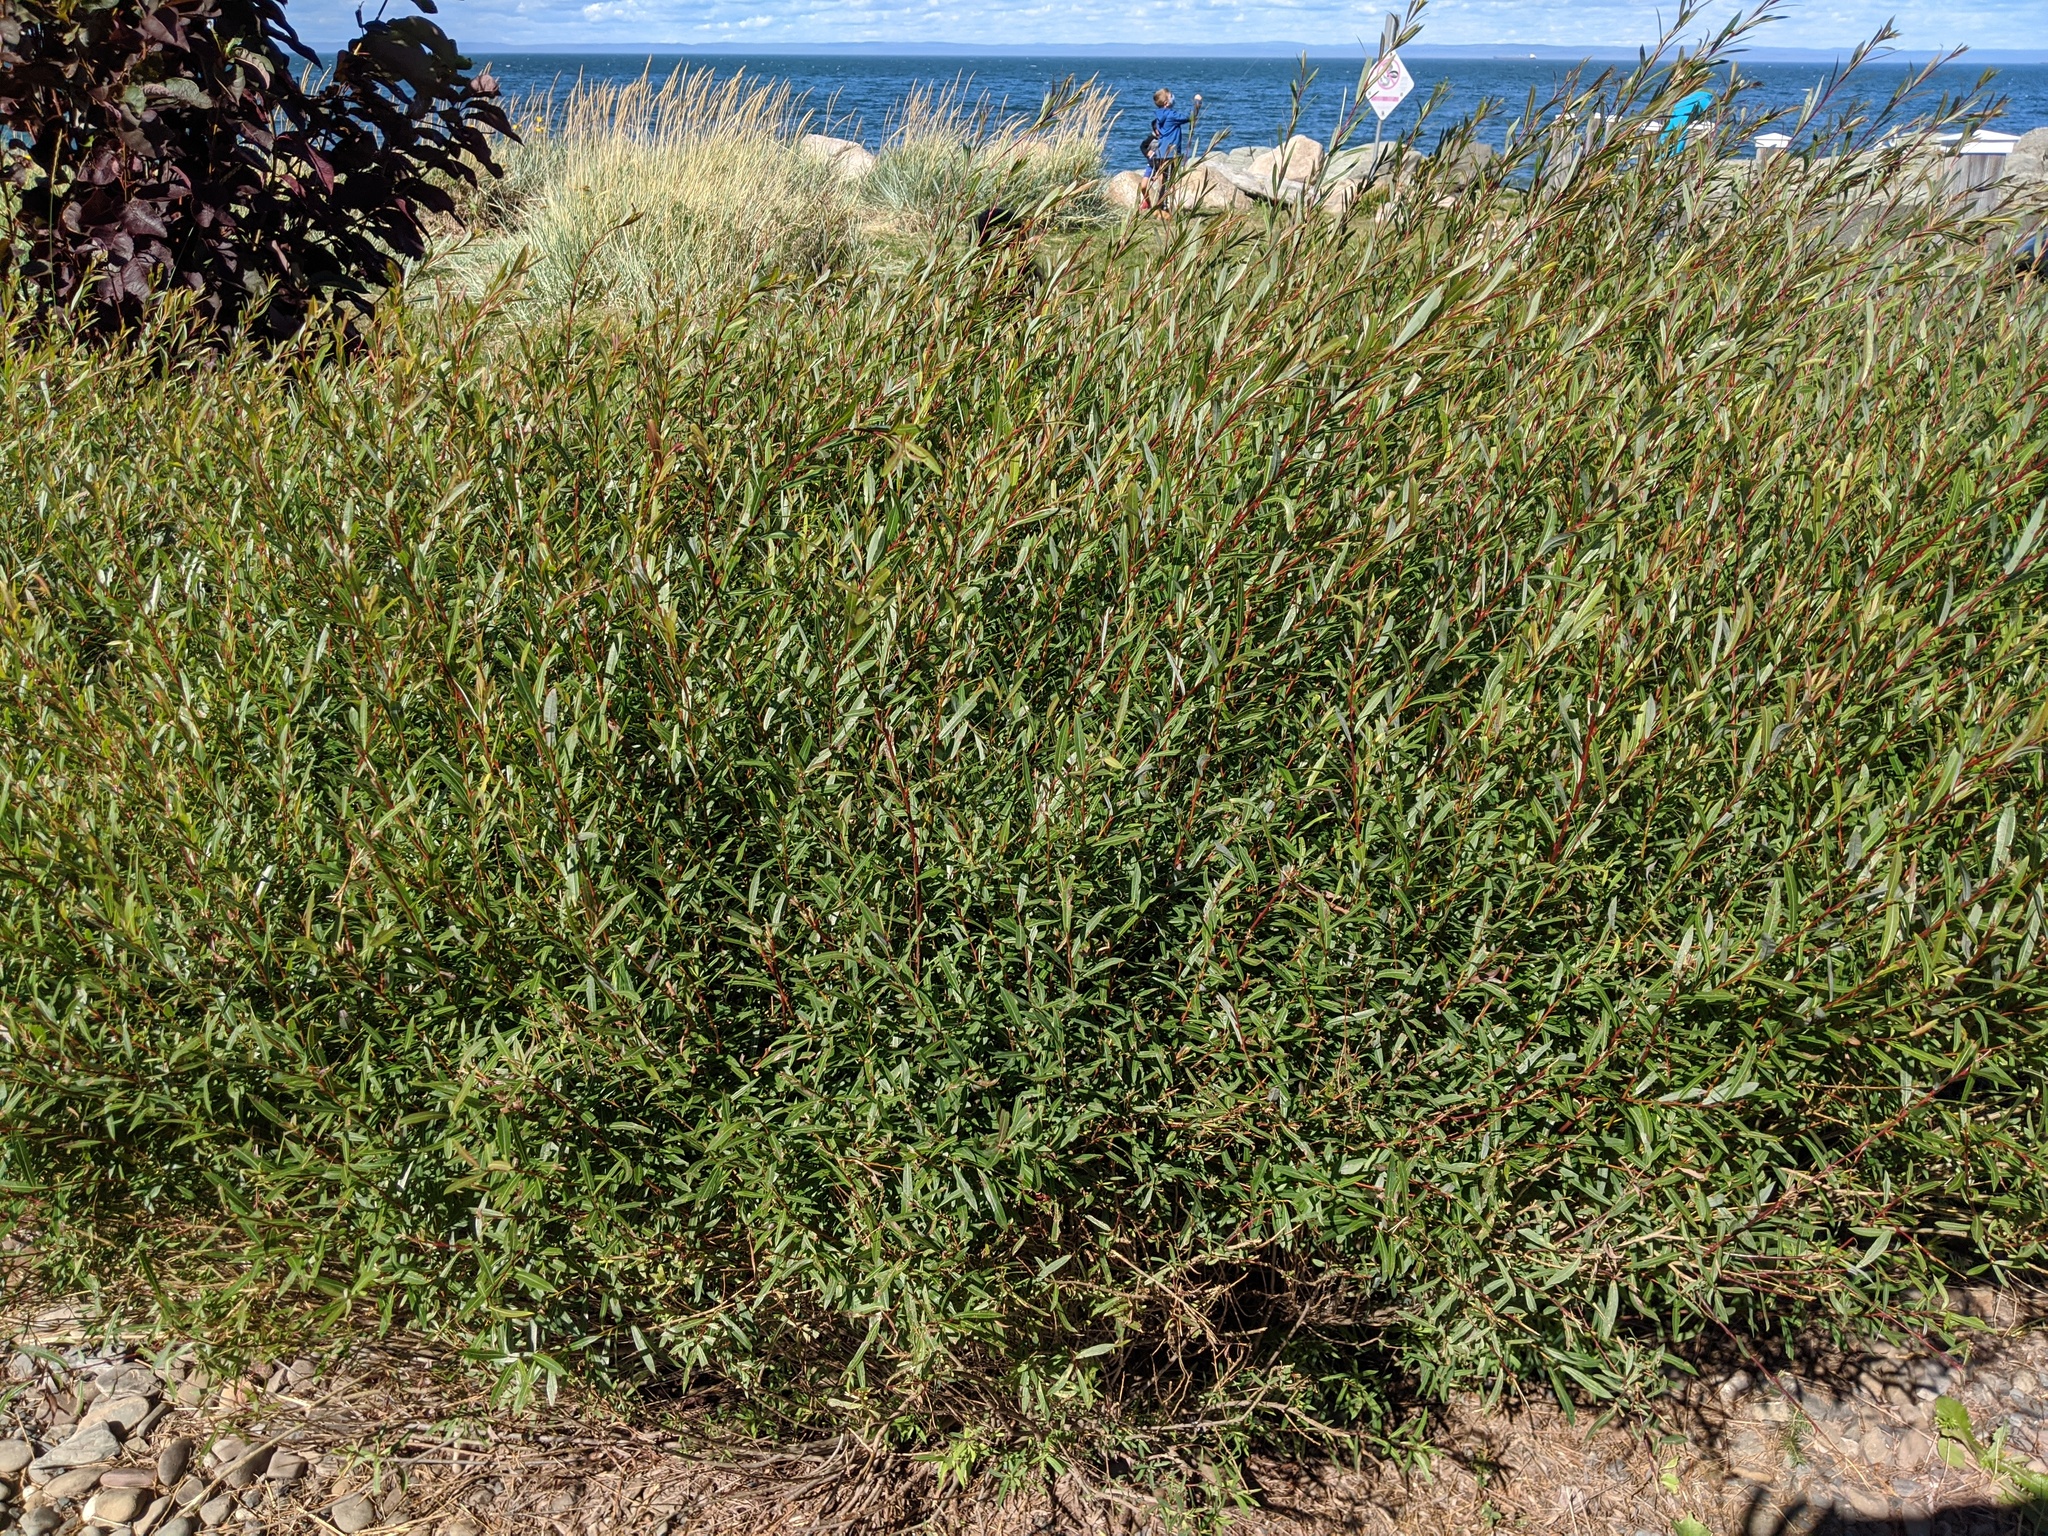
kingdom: Plantae
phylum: Tracheophyta
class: Magnoliopsida
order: Malpighiales
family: Salicaceae
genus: Salix
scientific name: Salix purpurea
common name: Purple willow
